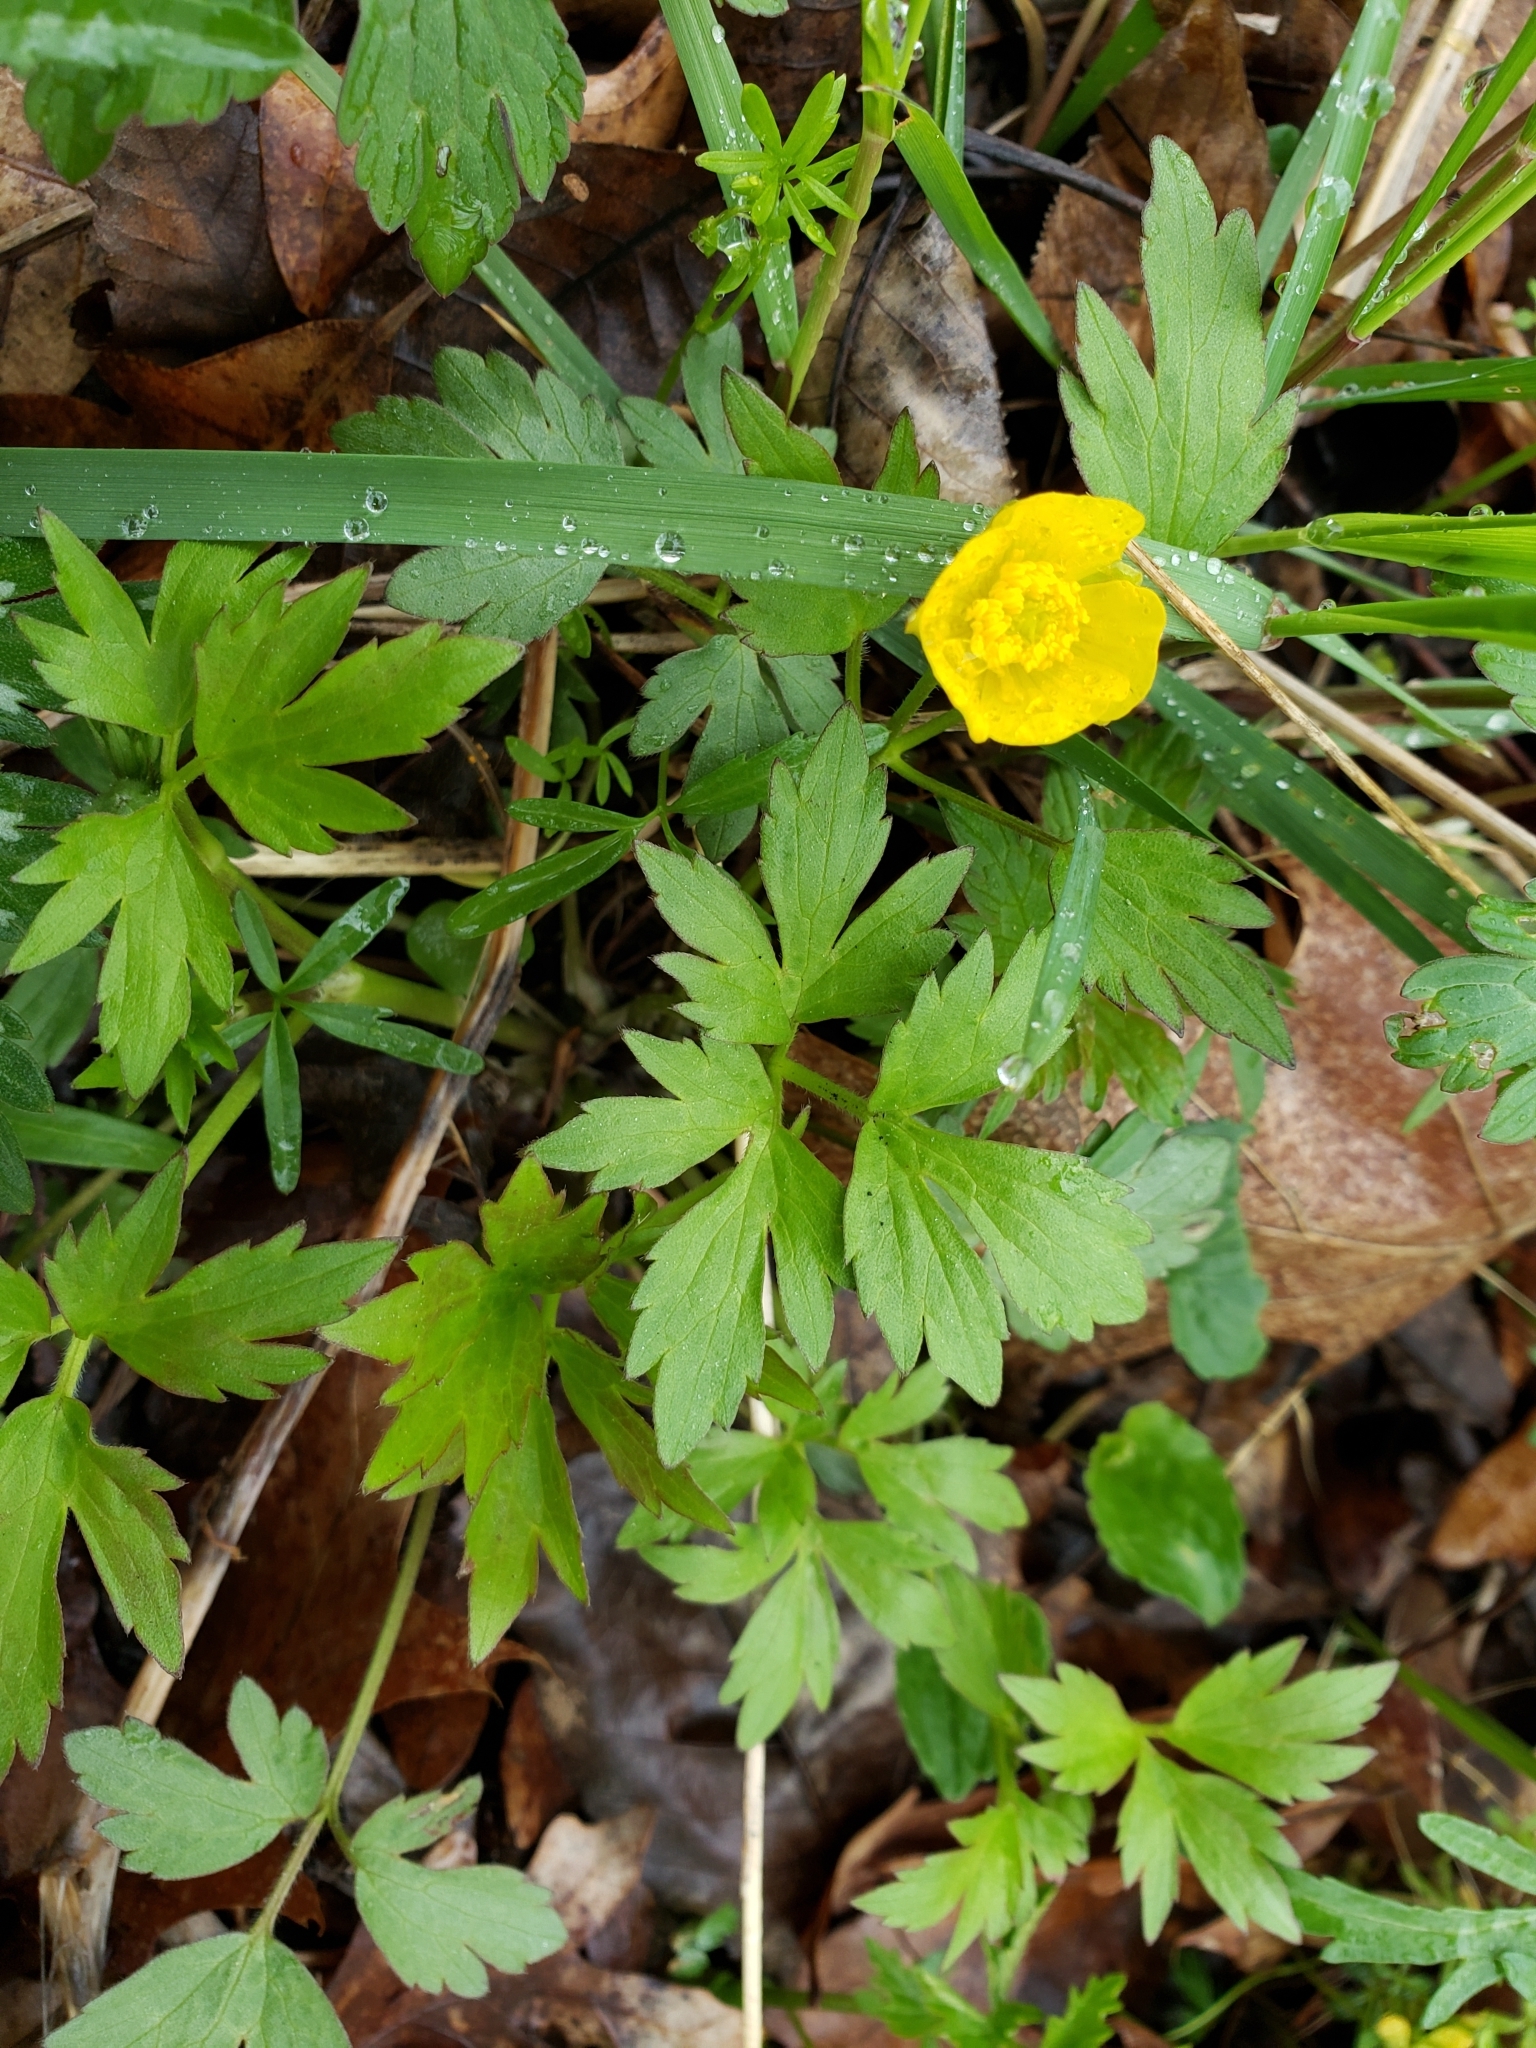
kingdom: Plantae
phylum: Tracheophyta
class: Magnoliopsida
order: Ranunculales
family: Ranunculaceae
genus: Ranunculus
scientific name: Ranunculus hispidus
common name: Bristly buttercup
